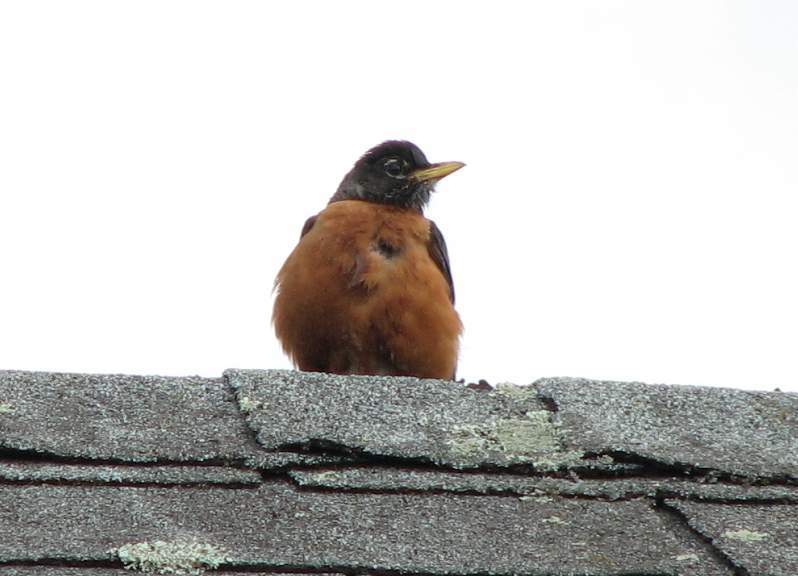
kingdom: Animalia
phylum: Chordata
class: Aves
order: Passeriformes
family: Turdidae
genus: Turdus
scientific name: Turdus migratorius
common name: American robin
